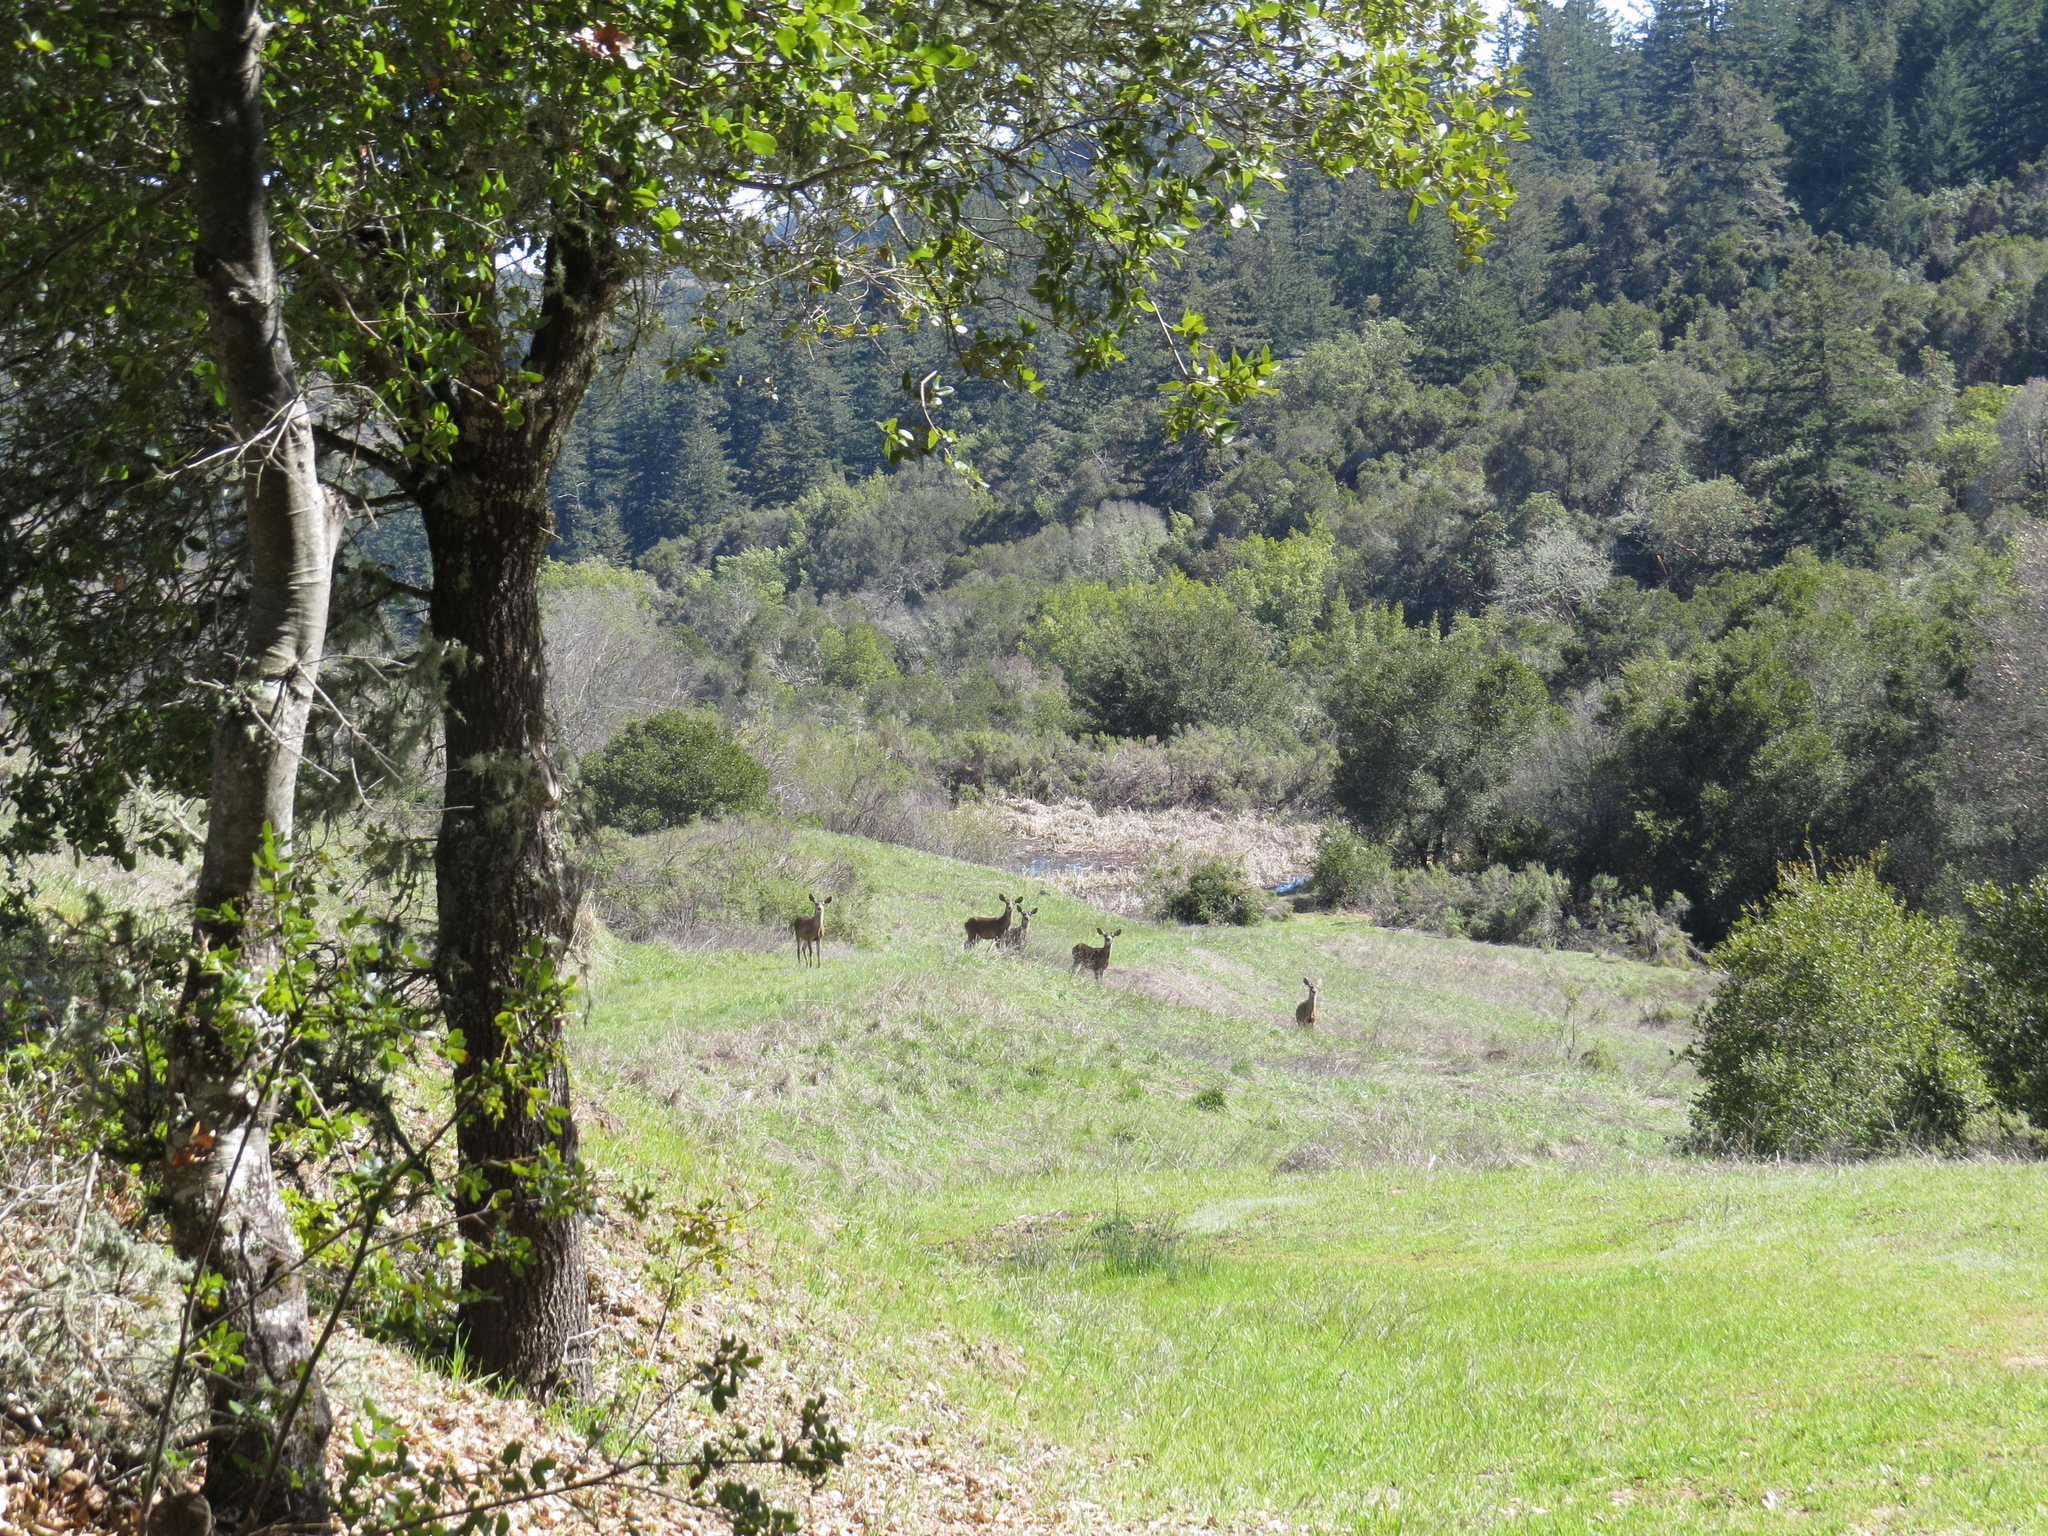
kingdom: Animalia
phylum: Chordata
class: Mammalia
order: Artiodactyla
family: Cervidae
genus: Odocoileus
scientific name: Odocoileus hemionus
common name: Mule deer
